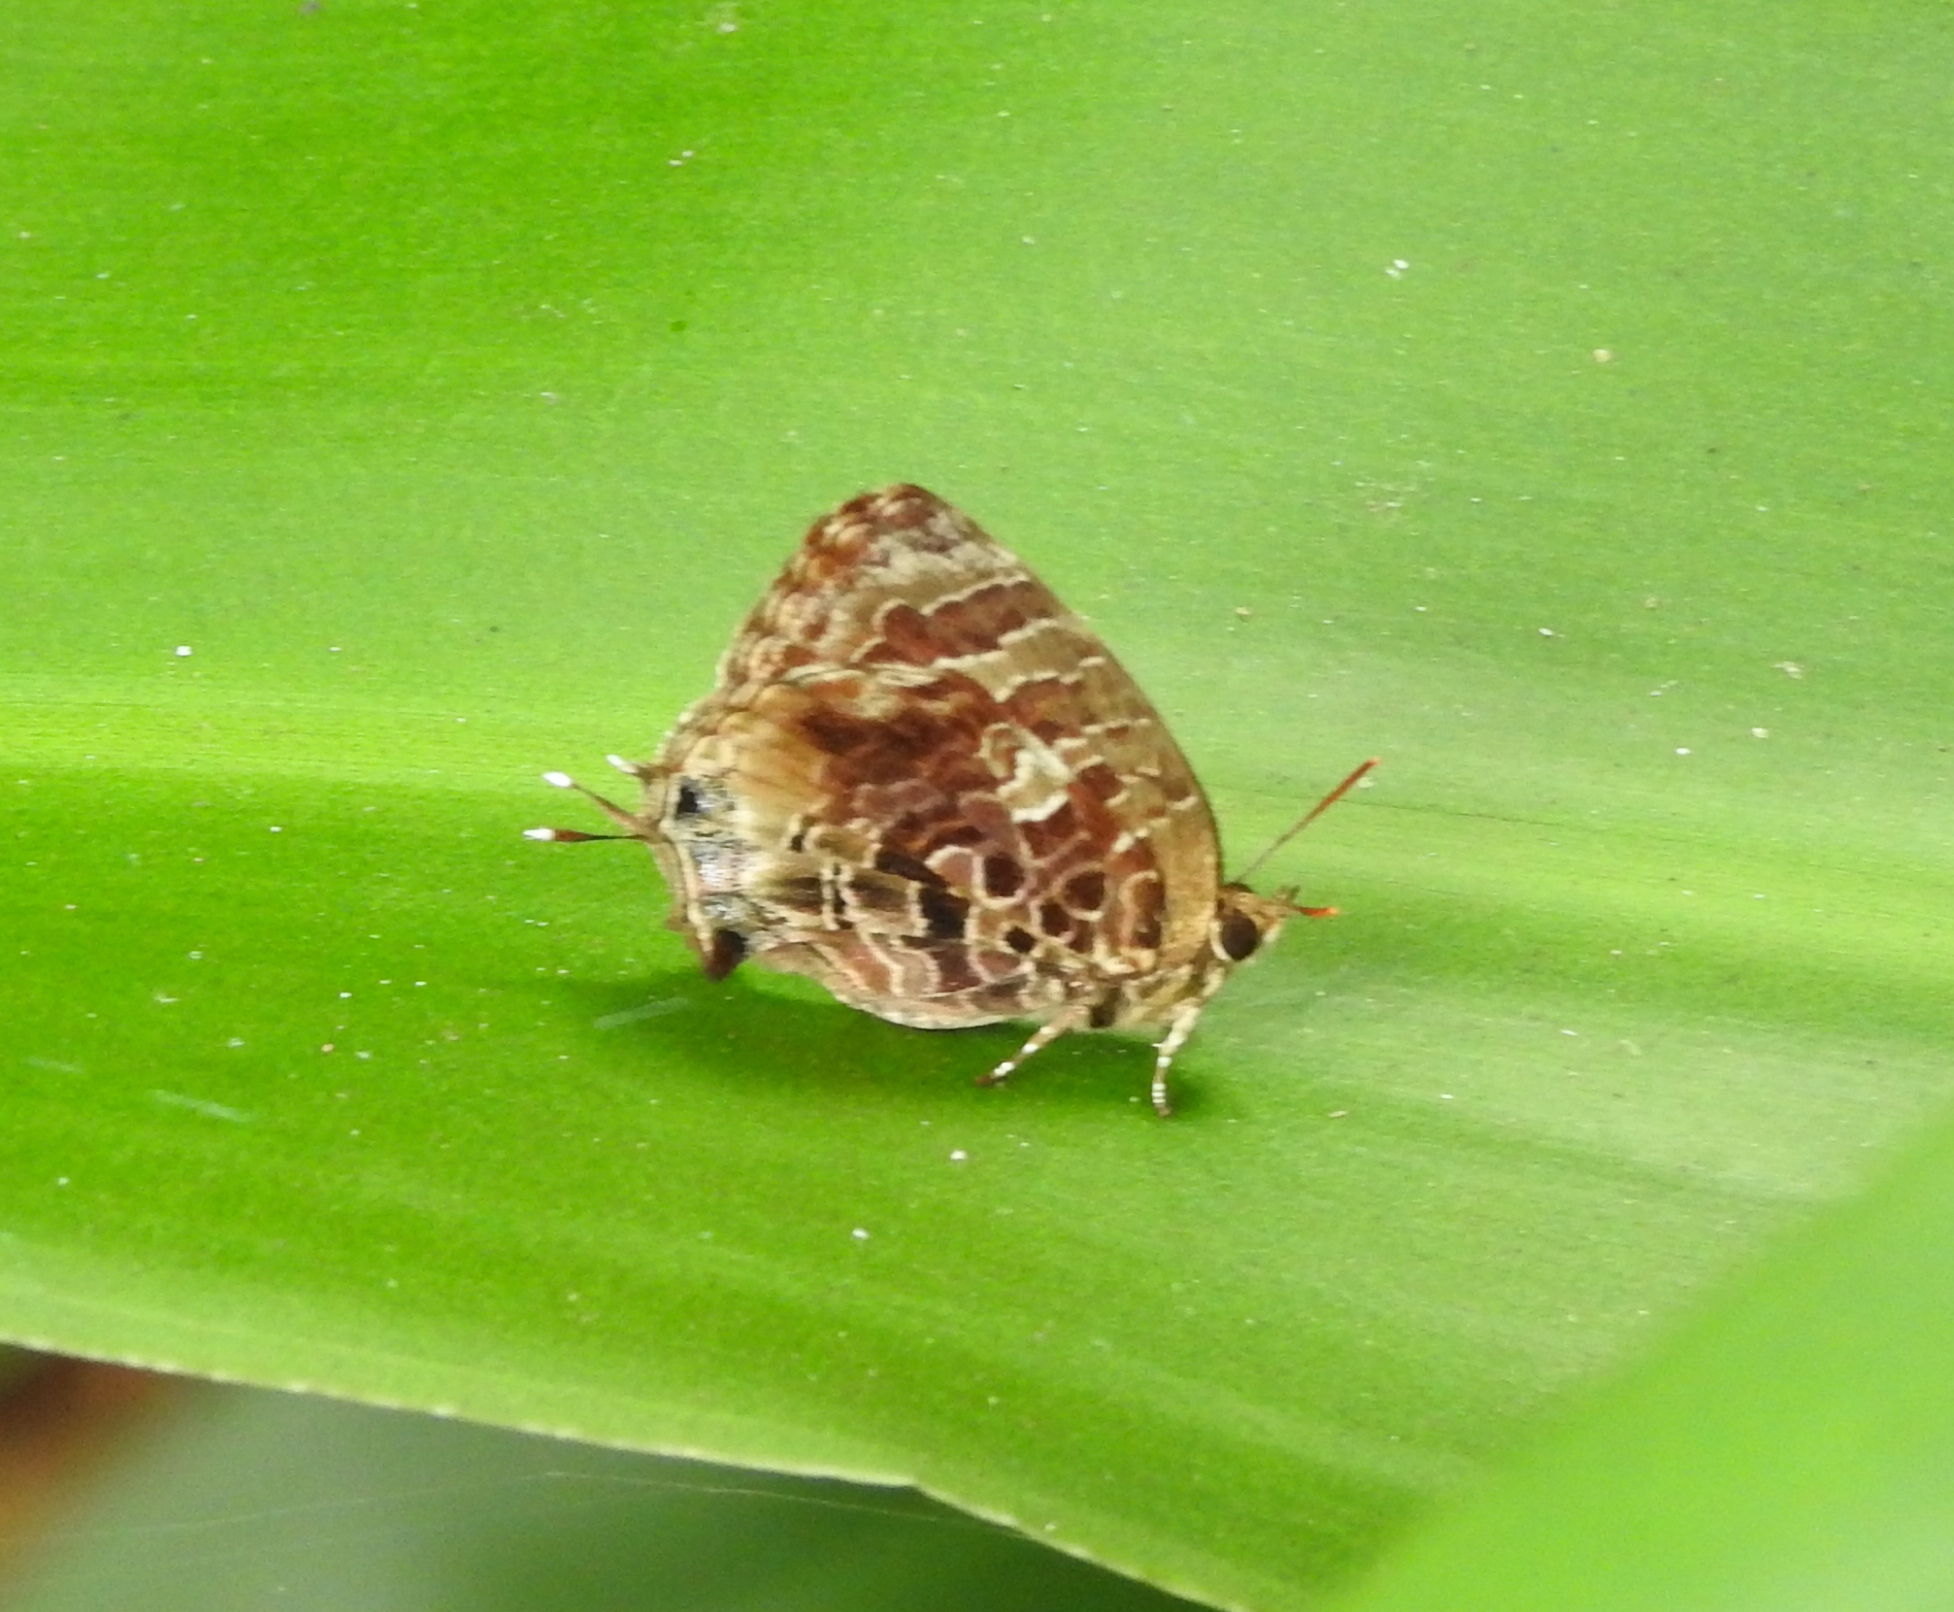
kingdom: Animalia
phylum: Arthropoda
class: Insecta
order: Lepidoptera
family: Lycaenidae
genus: Arhopala
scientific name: Arhopala abseus
